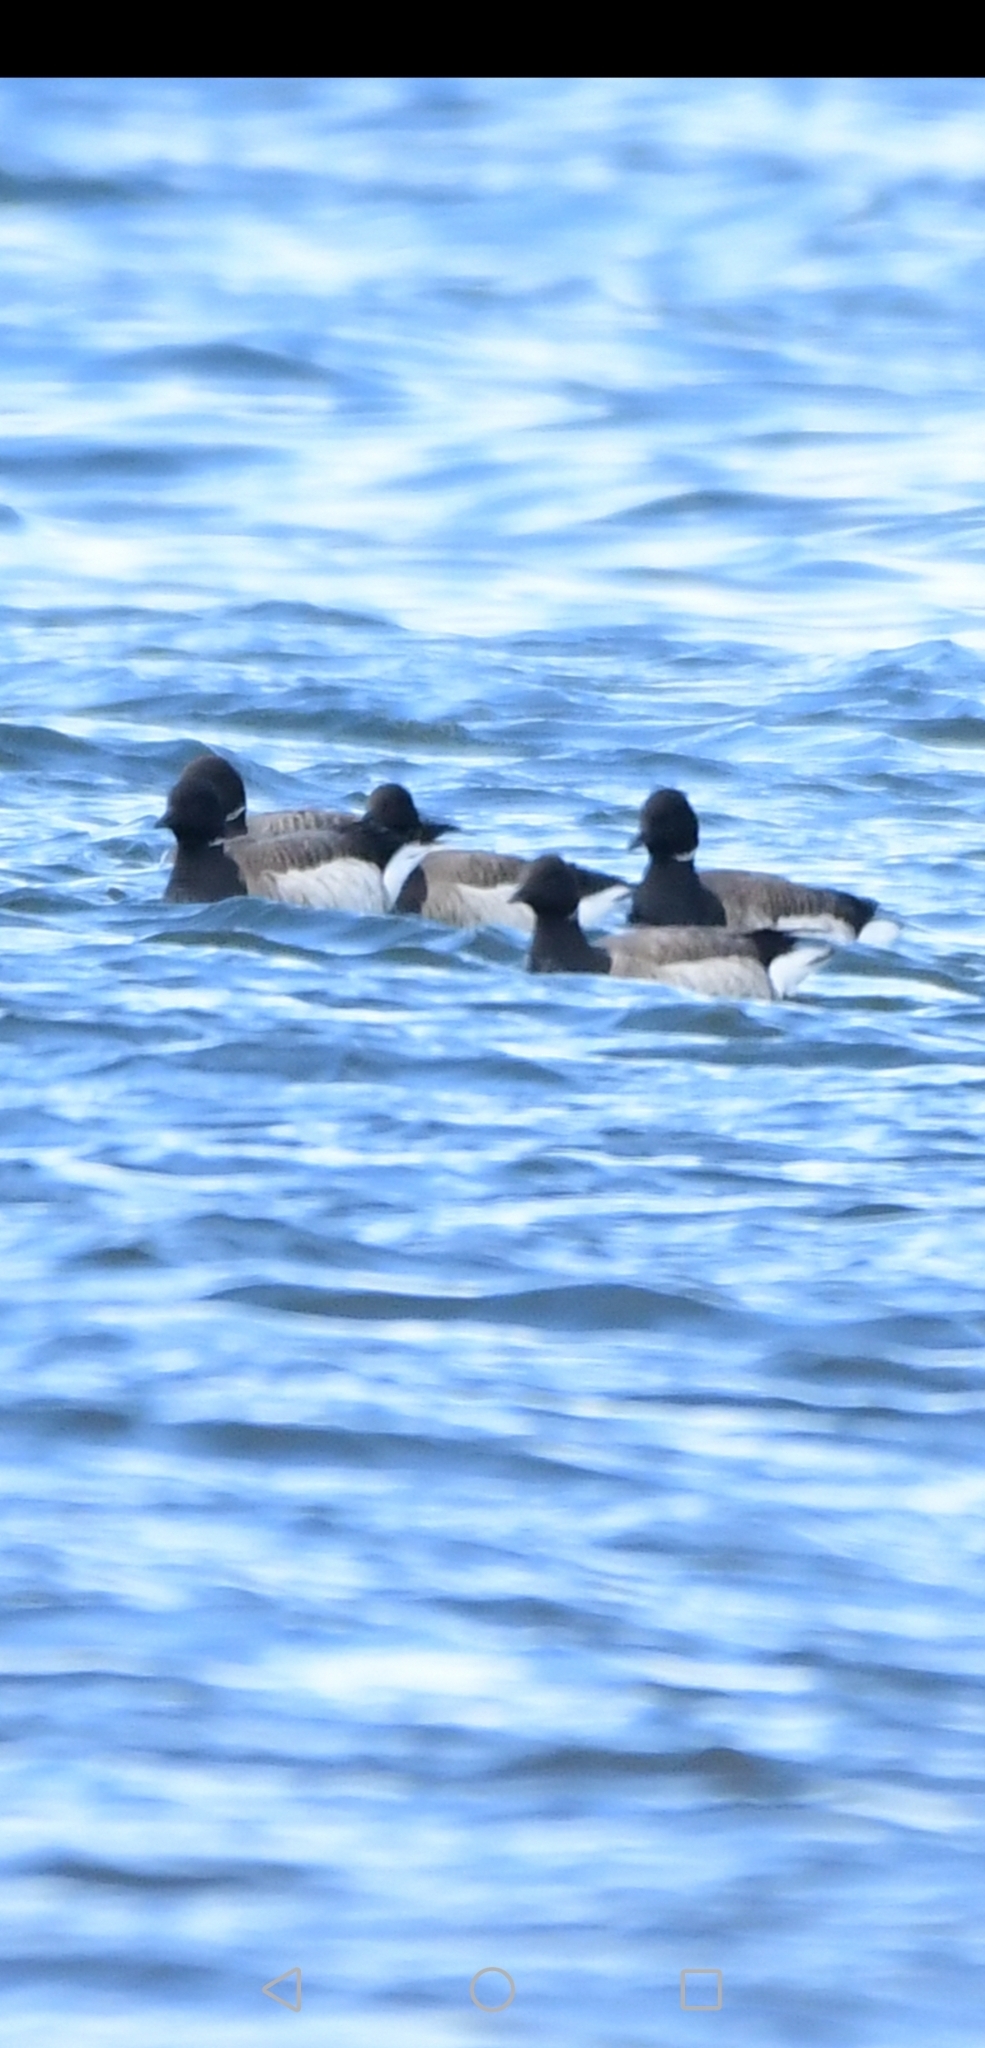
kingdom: Animalia
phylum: Chordata
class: Aves
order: Anseriformes
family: Anatidae
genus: Branta
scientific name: Branta bernicla
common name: Brant goose
